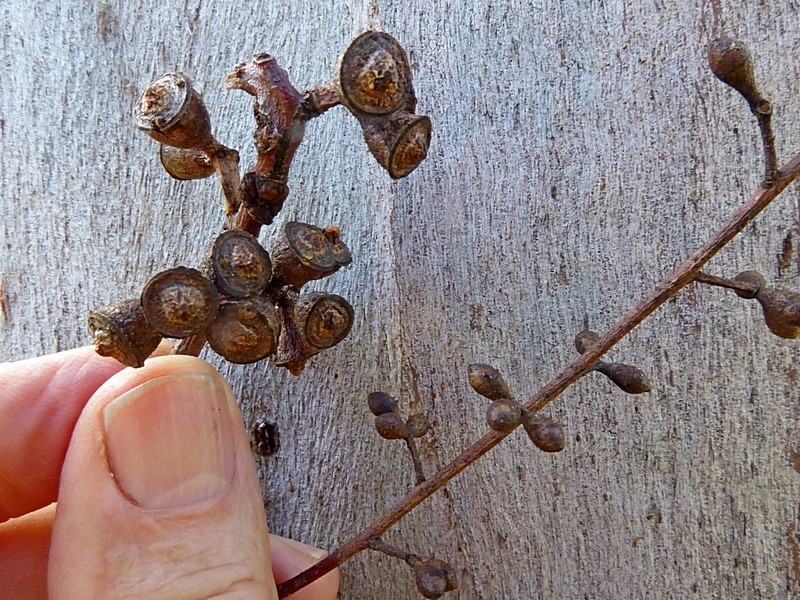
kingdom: Plantae
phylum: Tracheophyta
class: Magnoliopsida
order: Myrtales
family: Myrtaceae
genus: Eucalyptus
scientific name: Eucalyptus viminalis
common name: Manna gum
